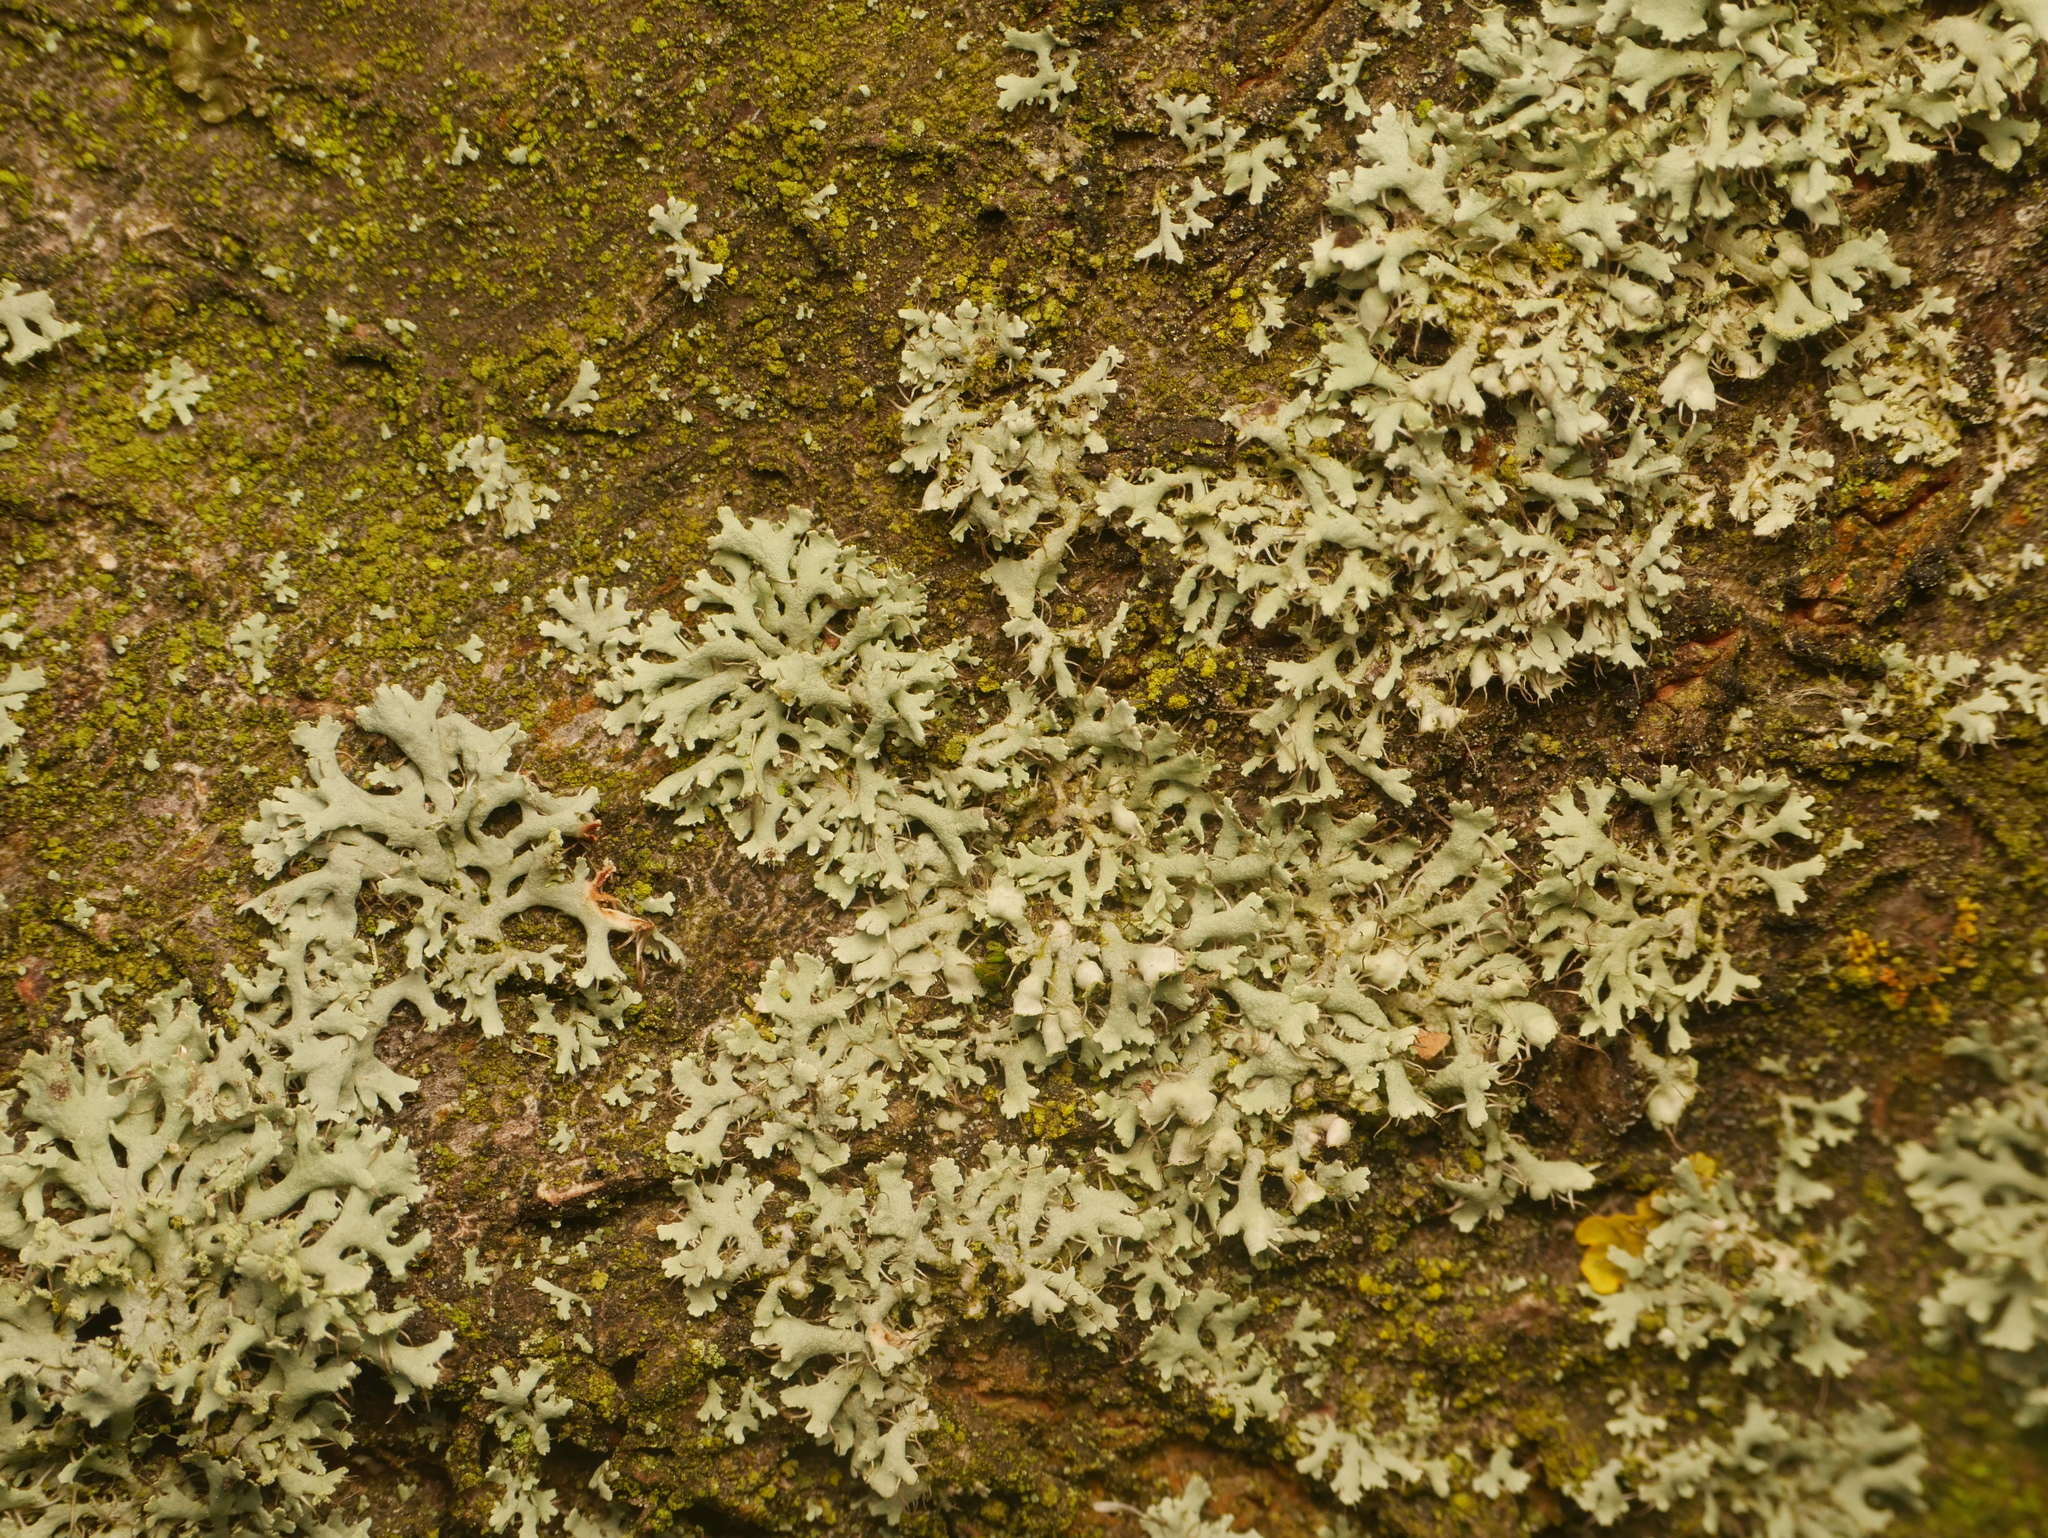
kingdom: Fungi
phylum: Ascomycota
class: Lecanoromycetes
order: Caliciales
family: Physciaceae
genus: Physcia
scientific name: Physcia adscendens
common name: Hooded rosette lichen
